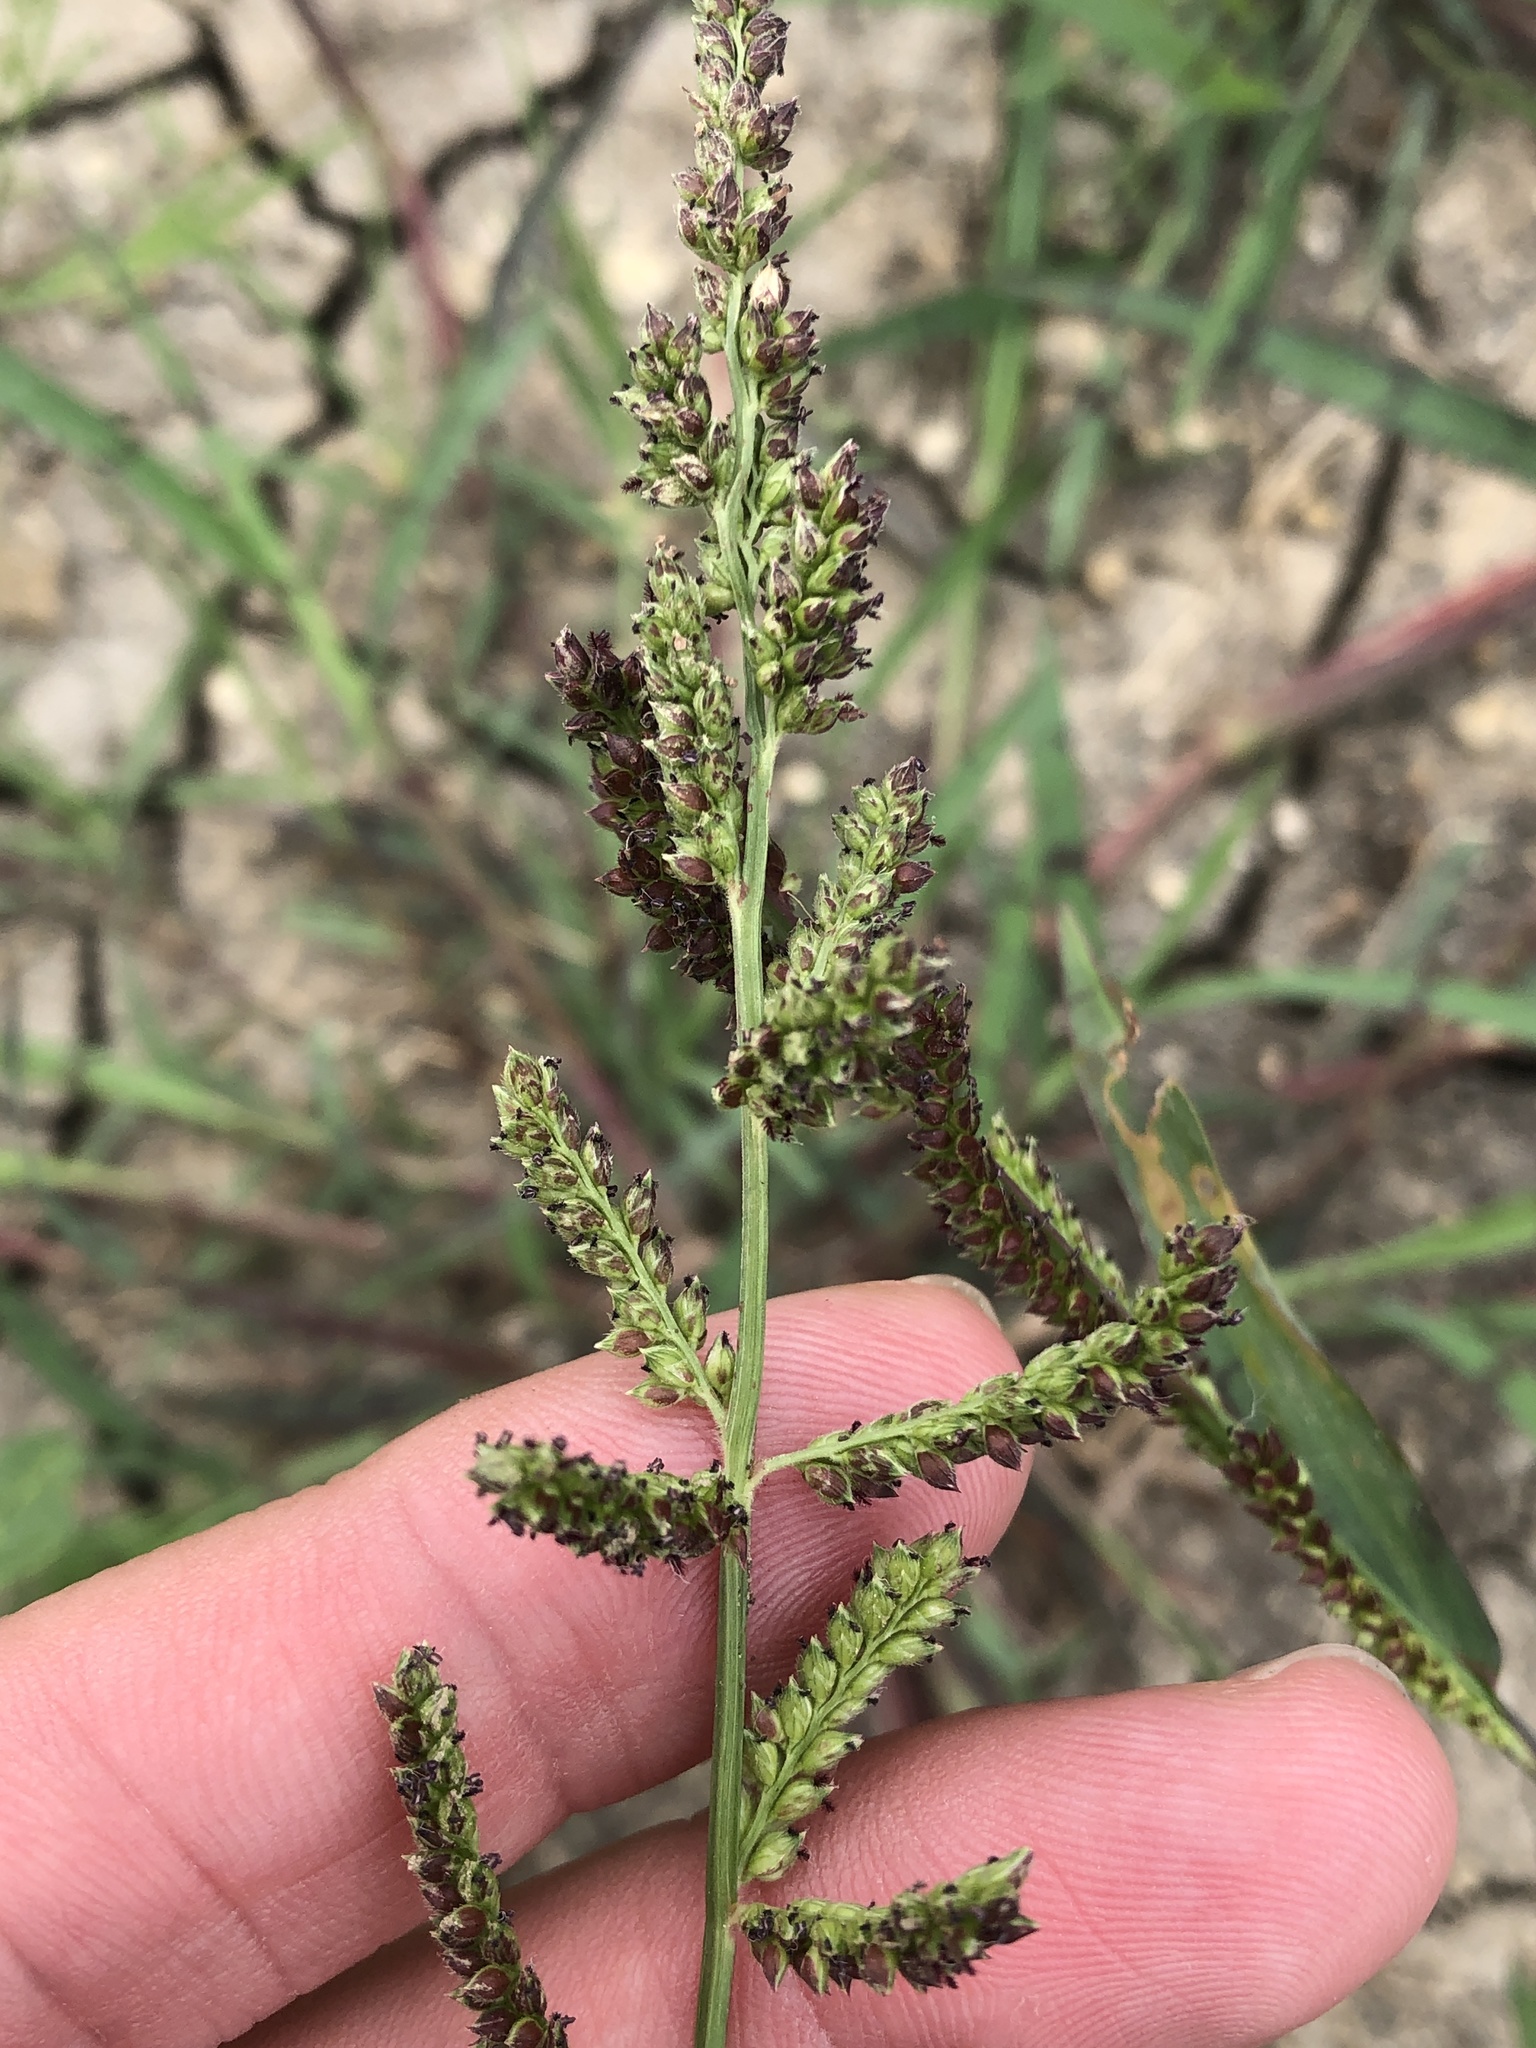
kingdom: Plantae
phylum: Tracheophyta
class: Liliopsida
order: Poales
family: Poaceae
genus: Echinochloa
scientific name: Echinochloa colonum
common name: Jungle rice
